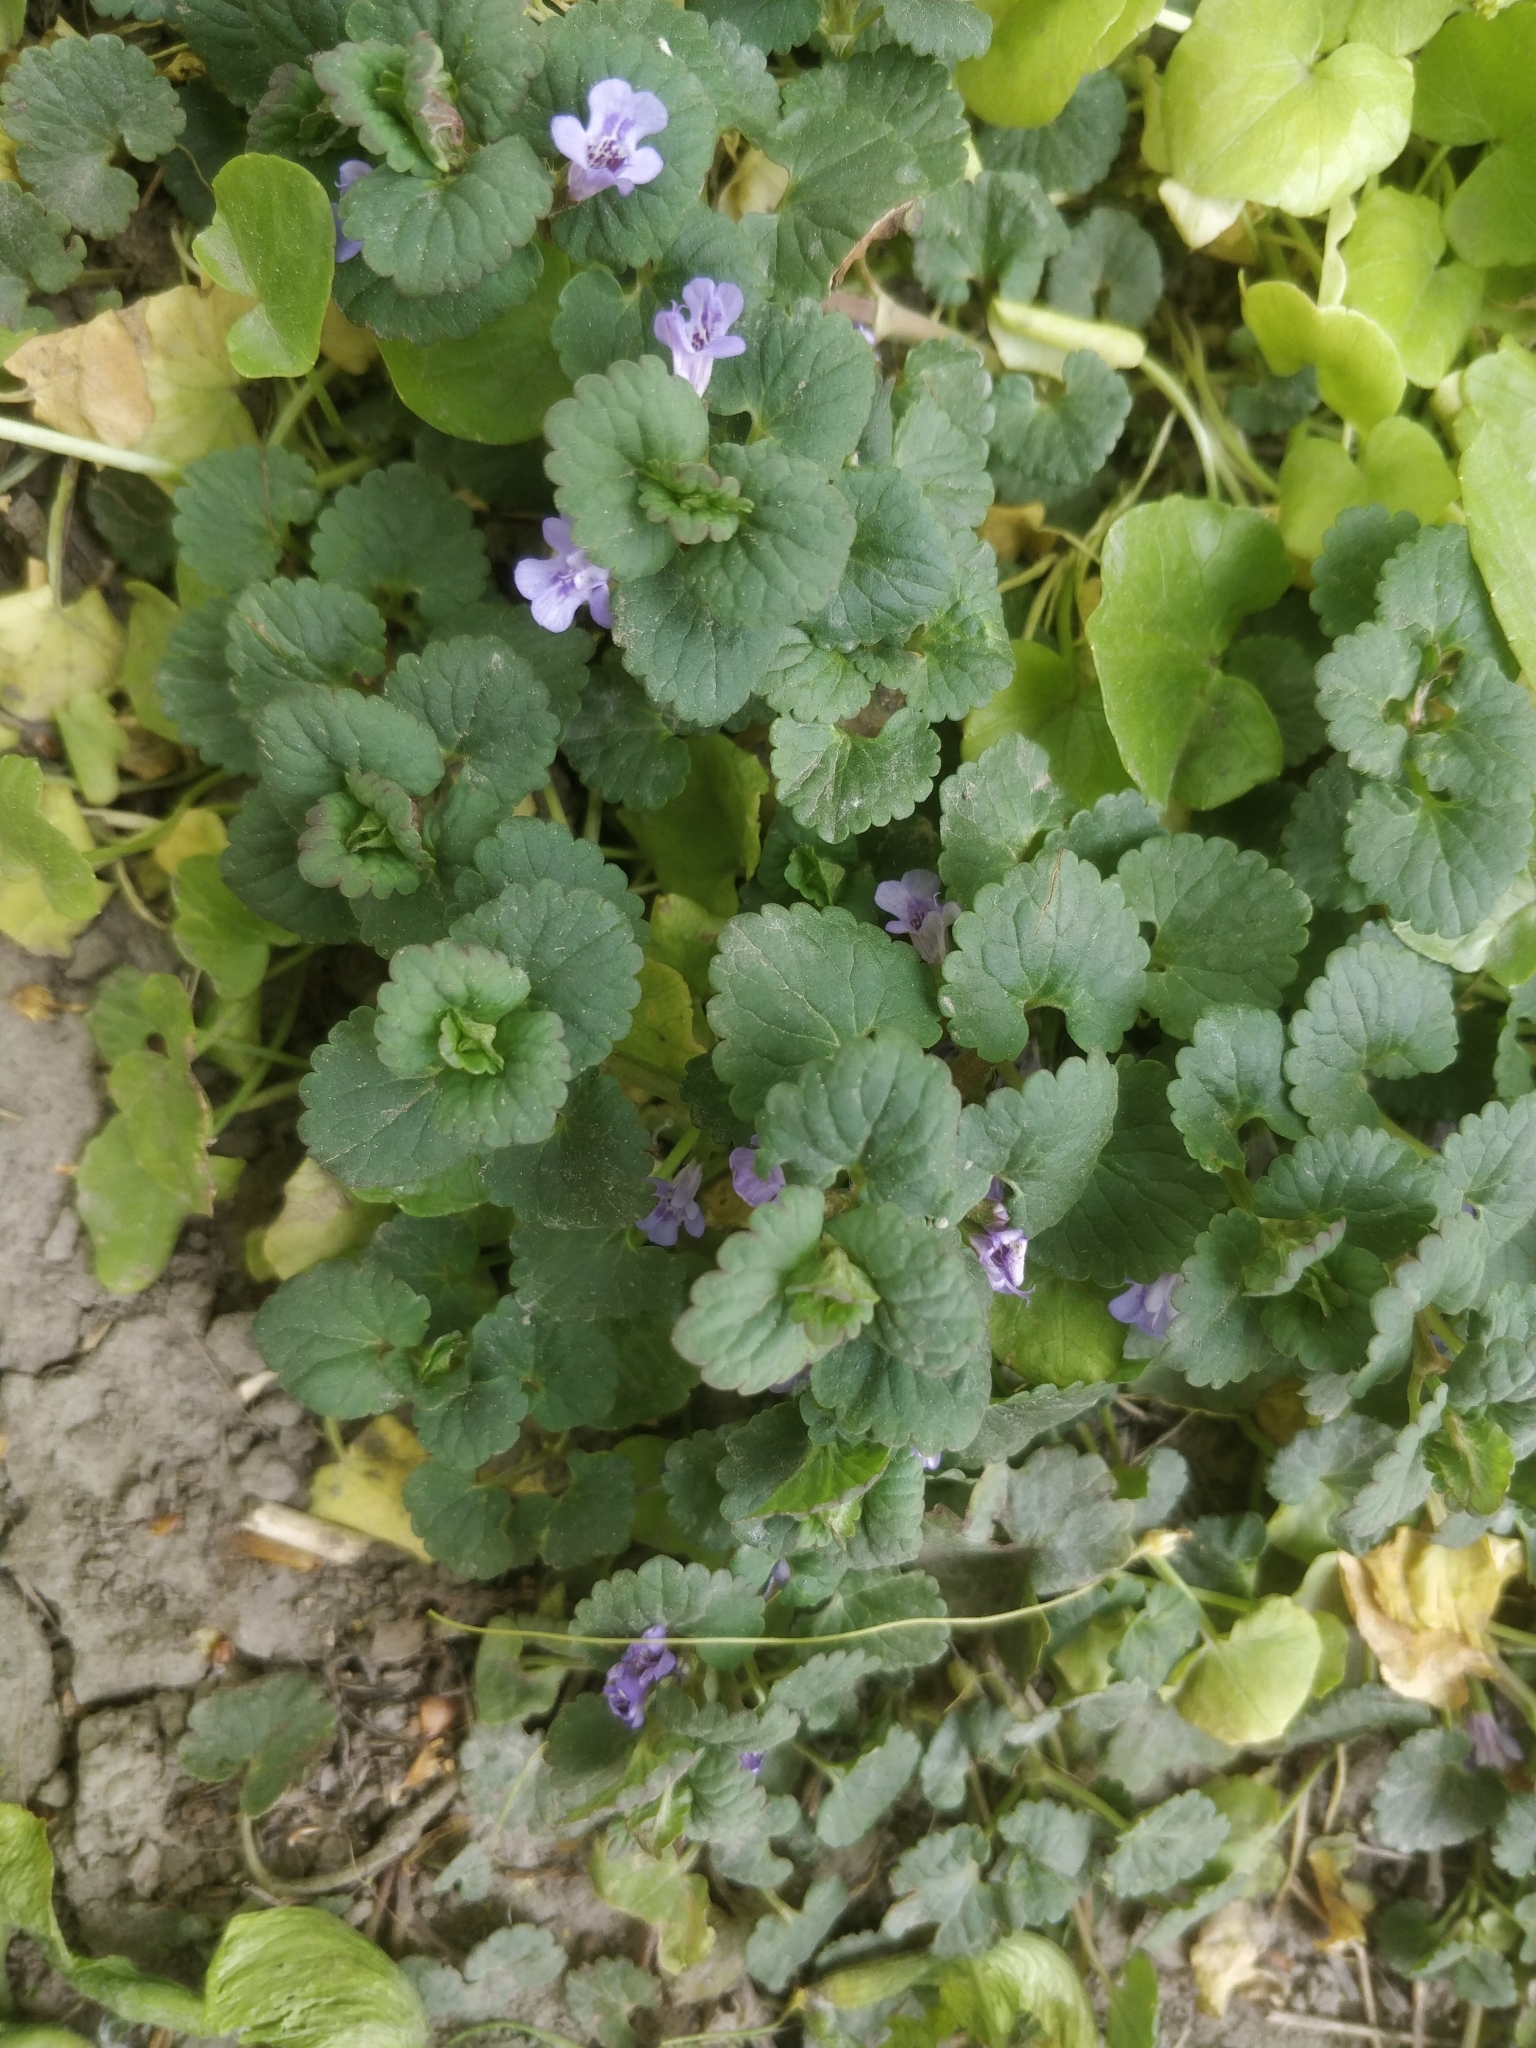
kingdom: Plantae
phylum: Tracheophyta
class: Magnoliopsida
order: Lamiales
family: Lamiaceae
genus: Glechoma
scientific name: Glechoma hederacea
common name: Ground ivy
